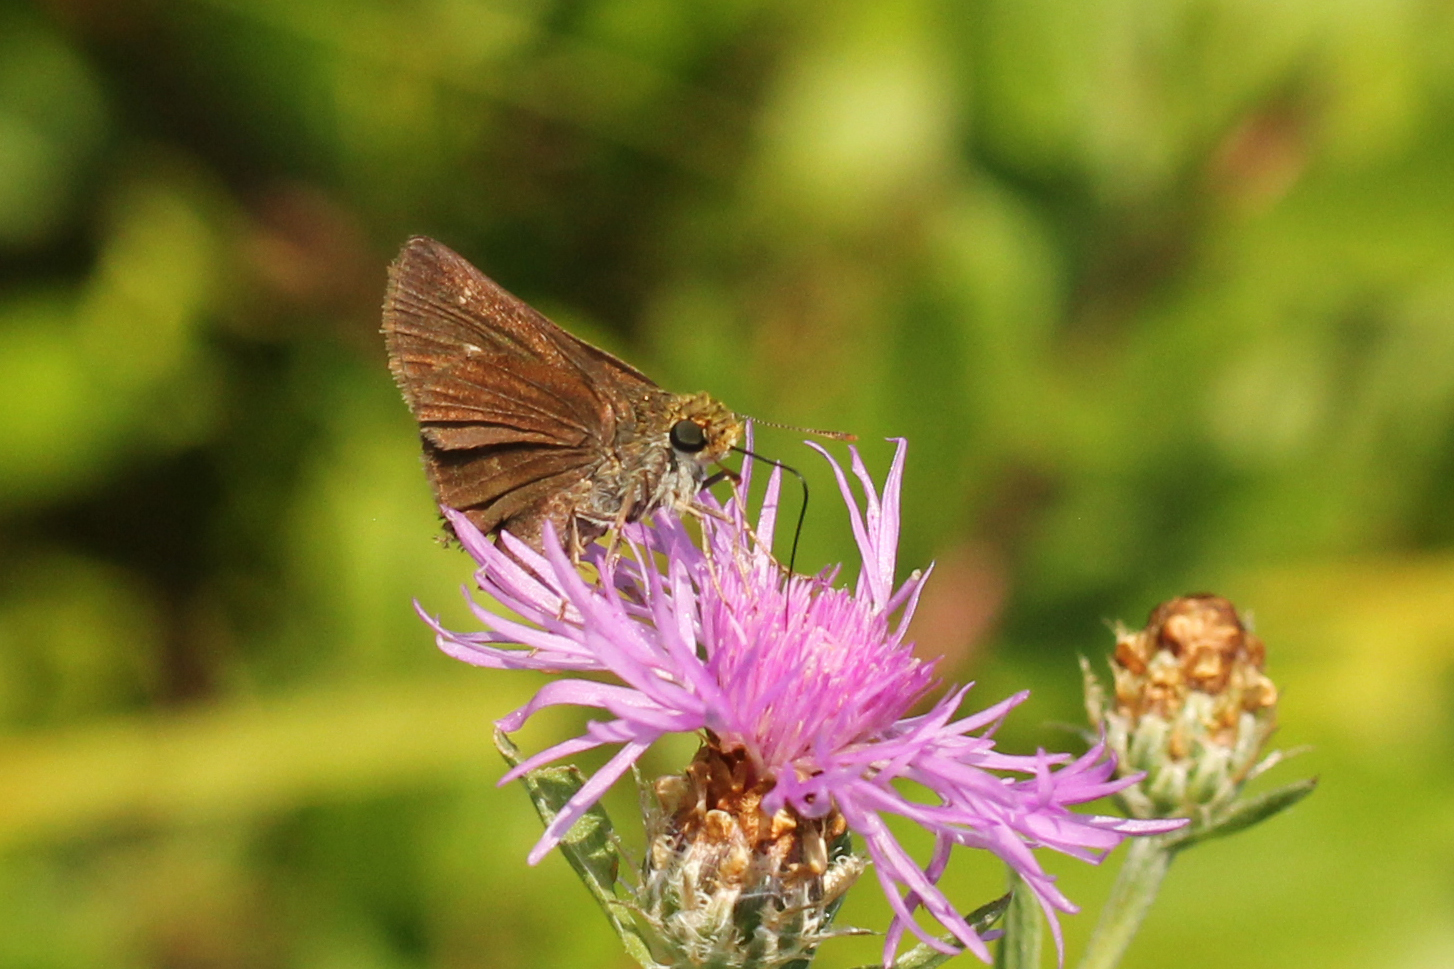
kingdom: Animalia
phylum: Arthropoda
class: Insecta
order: Lepidoptera
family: Hesperiidae
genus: Euphyes
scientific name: Euphyes vestris
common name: Dun skipper
